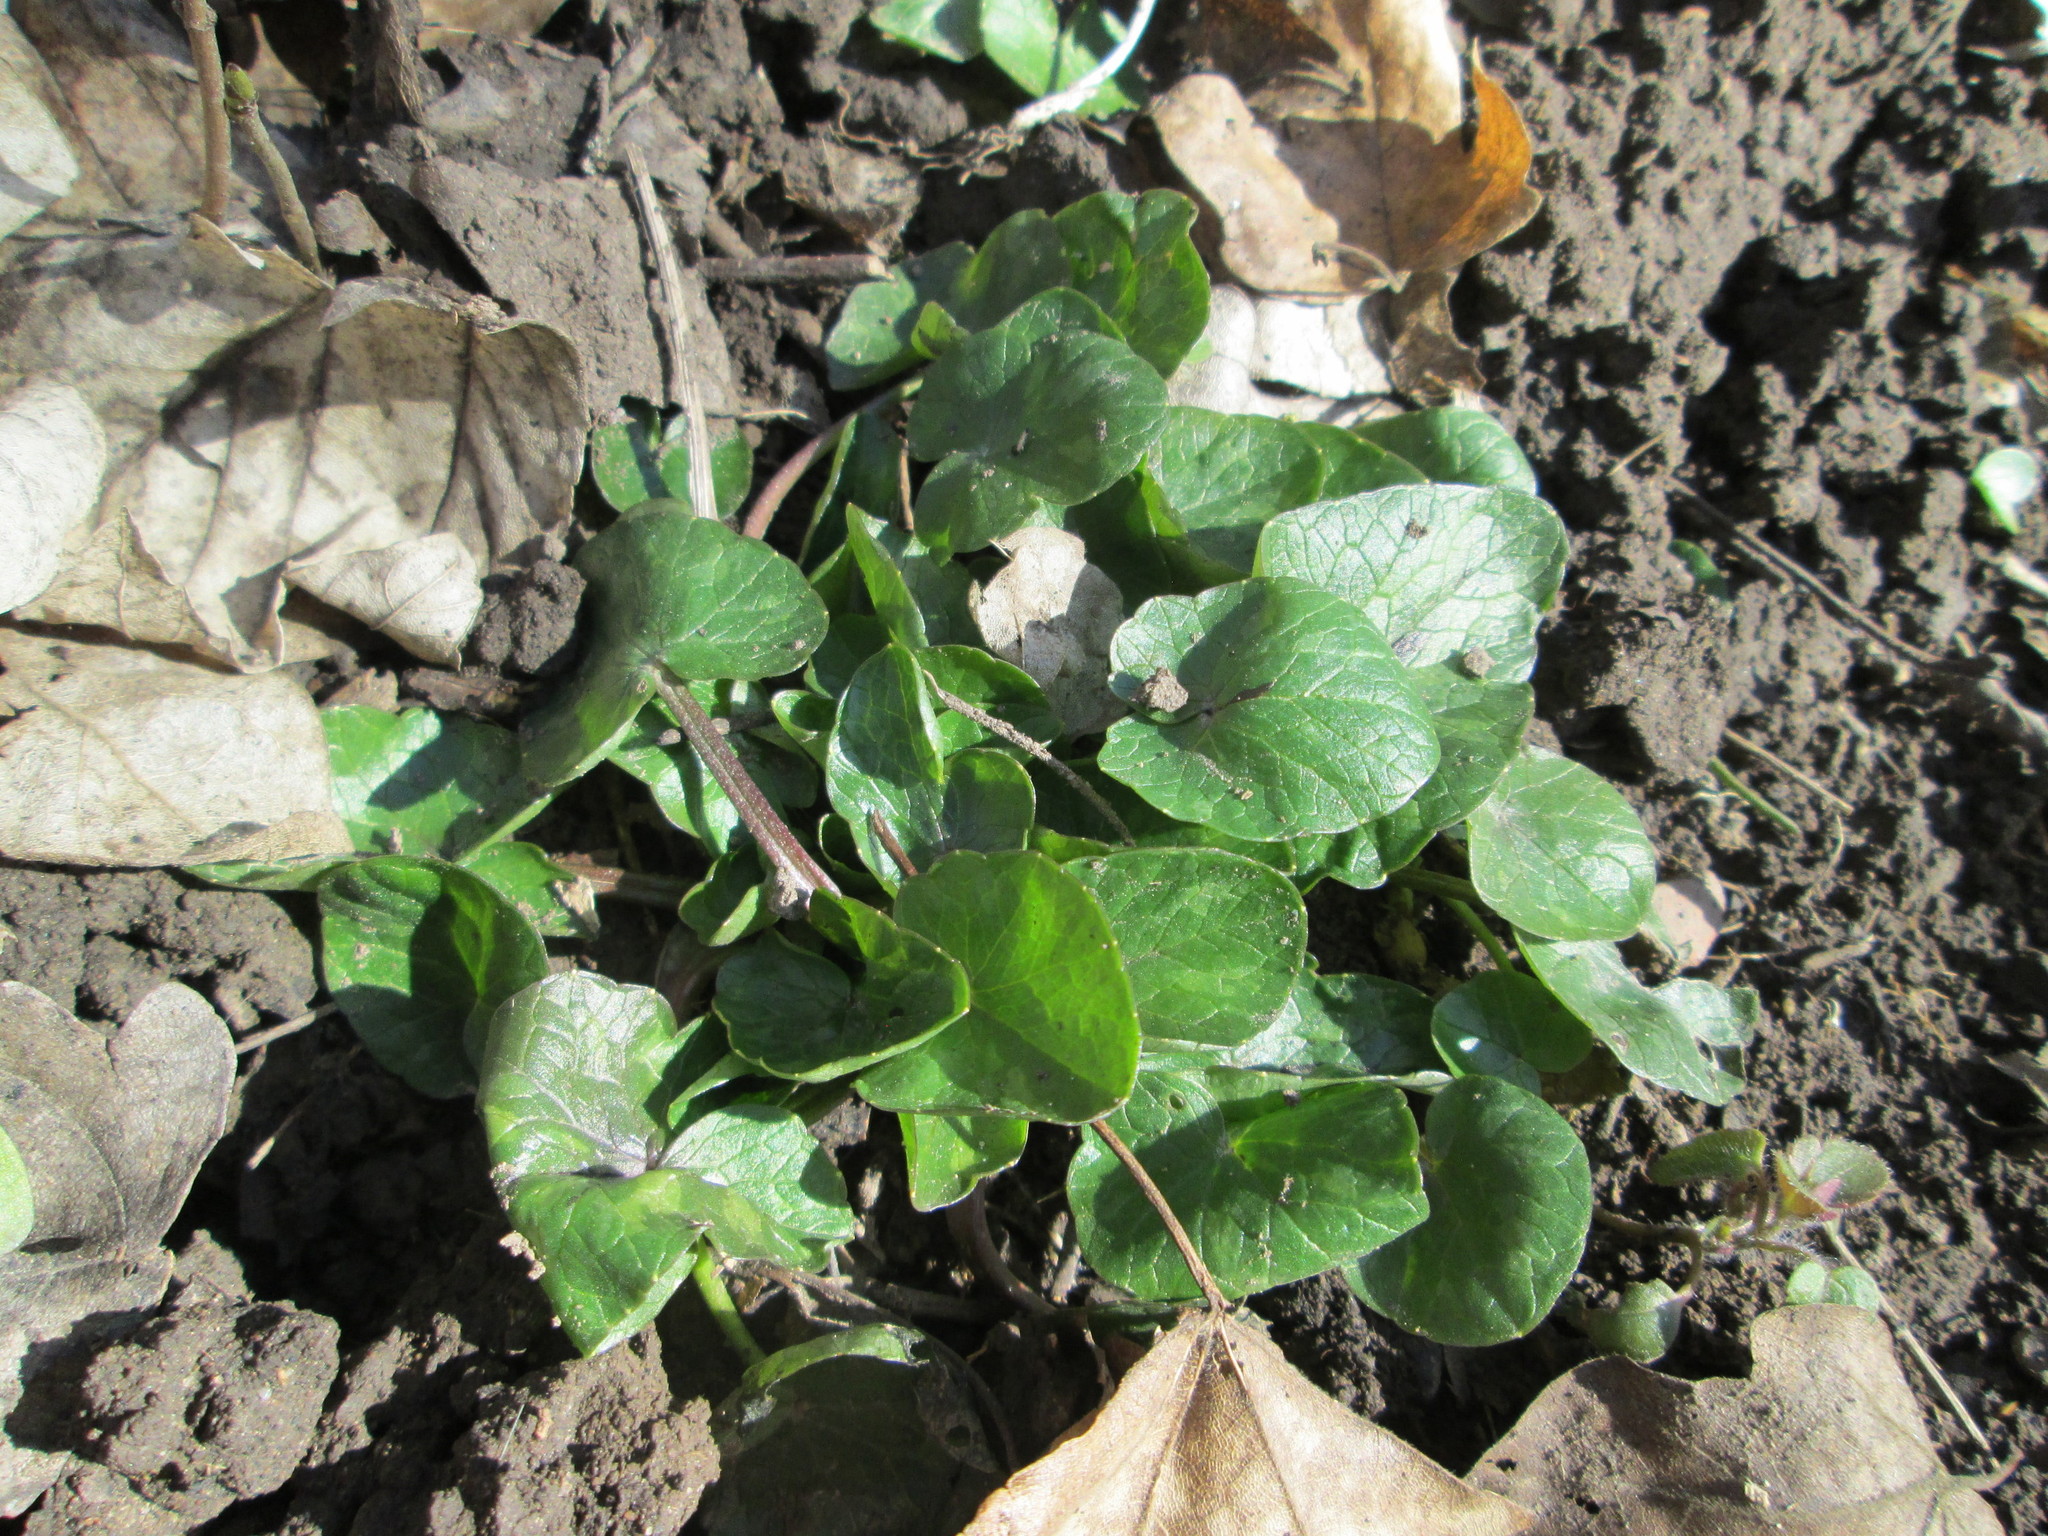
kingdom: Plantae
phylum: Tracheophyta
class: Magnoliopsida
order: Ranunculales
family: Ranunculaceae
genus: Ficaria
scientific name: Ficaria verna
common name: Lesser celandine
